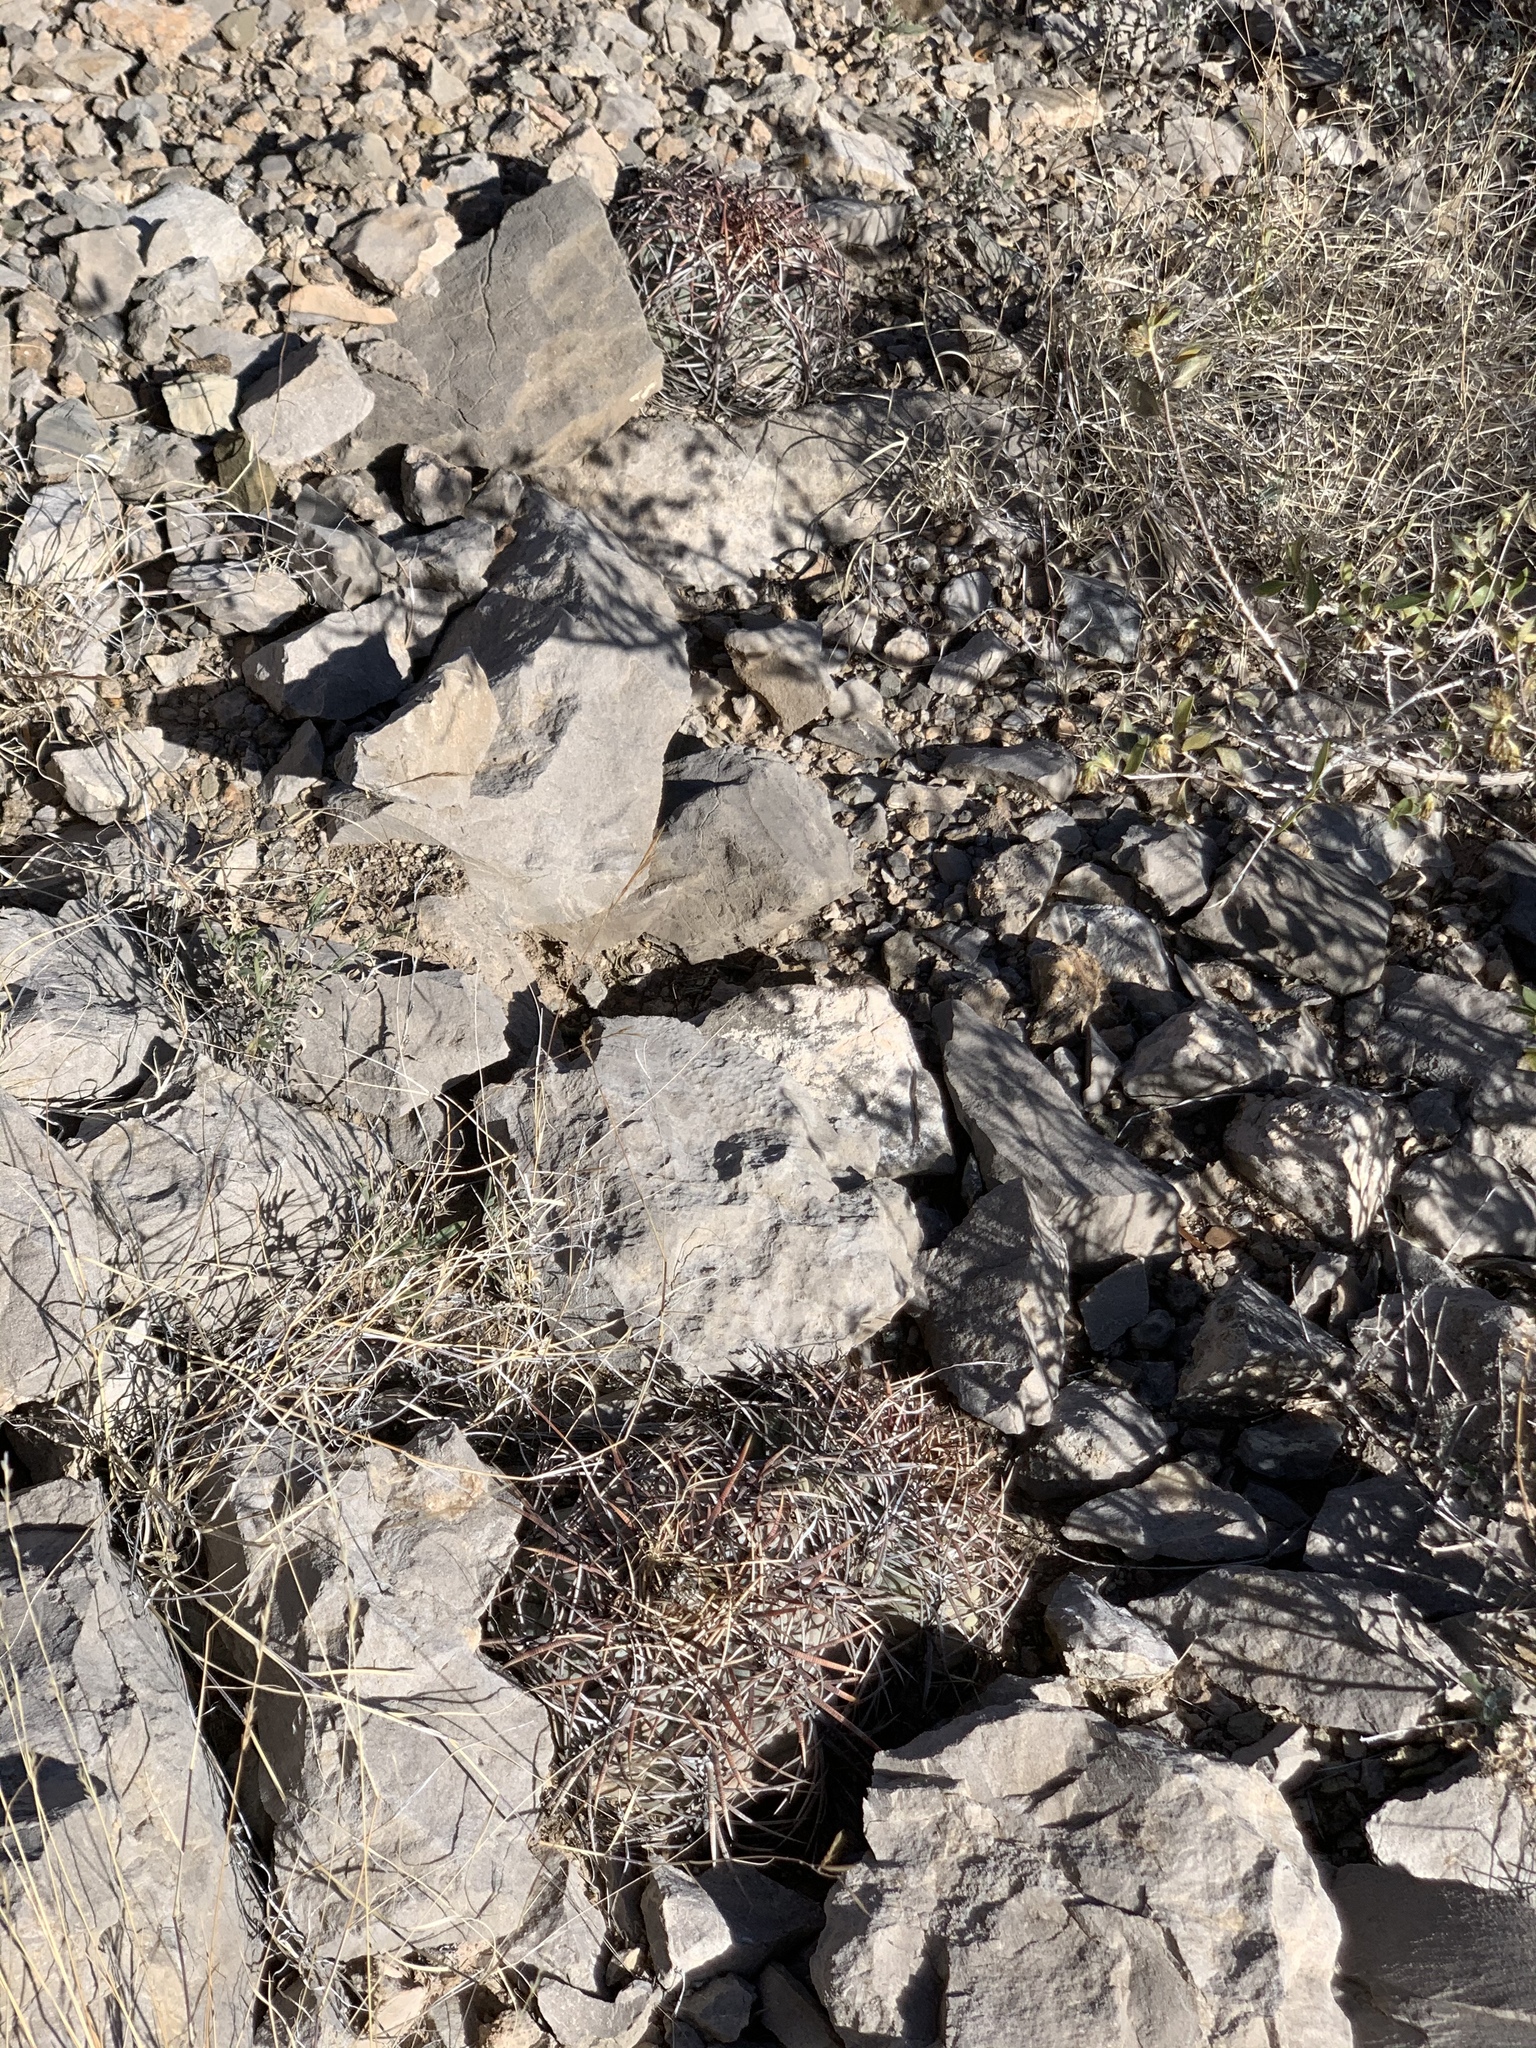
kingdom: Plantae
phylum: Tracheophyta
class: Magnoliopsida
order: Caryophyllales
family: Cactaceae
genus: Echinocactus
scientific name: Echinocactus horizonthalonius
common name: Devilshead
